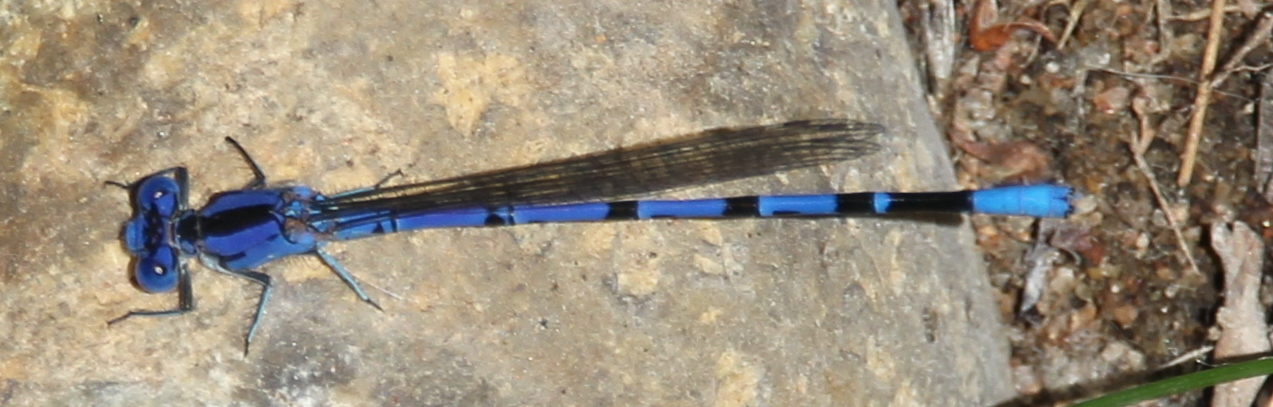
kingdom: Animalia
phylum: Arthropoda
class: Insecta
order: Odonata
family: Coenagrionidae
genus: Argia
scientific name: Argia vivida
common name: Vivid dancer
